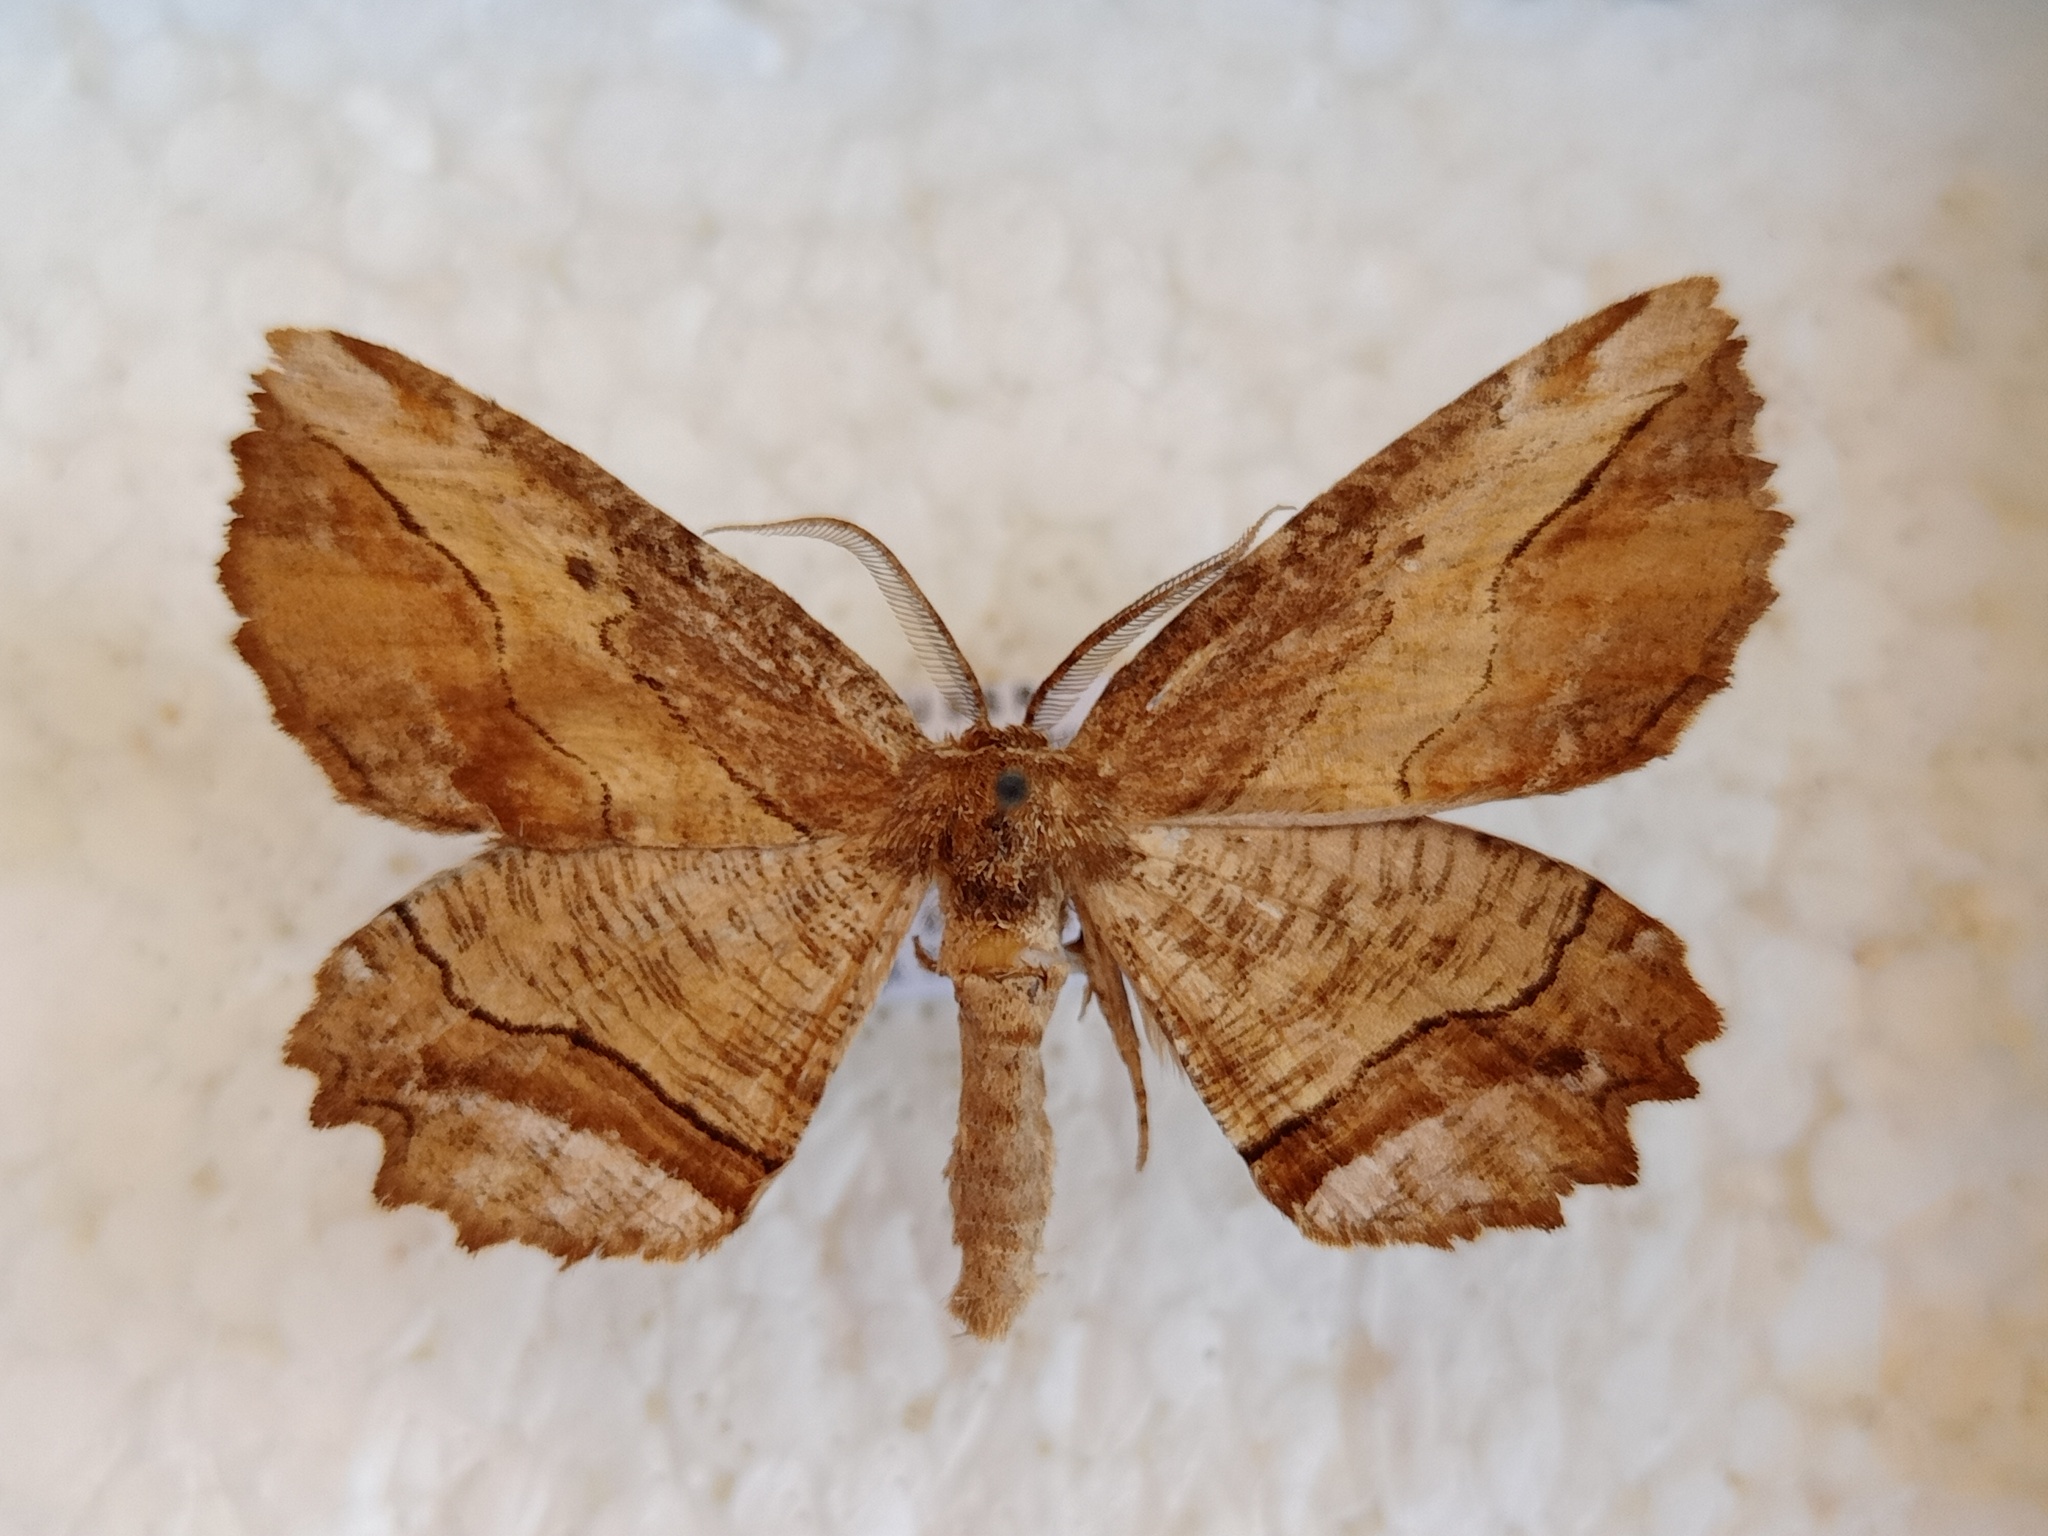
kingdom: Animalia
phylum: Arthropoda
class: Insecta
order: Lepidoptera
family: Geometridae
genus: Phthonandria
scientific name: Phthonandria emaria
